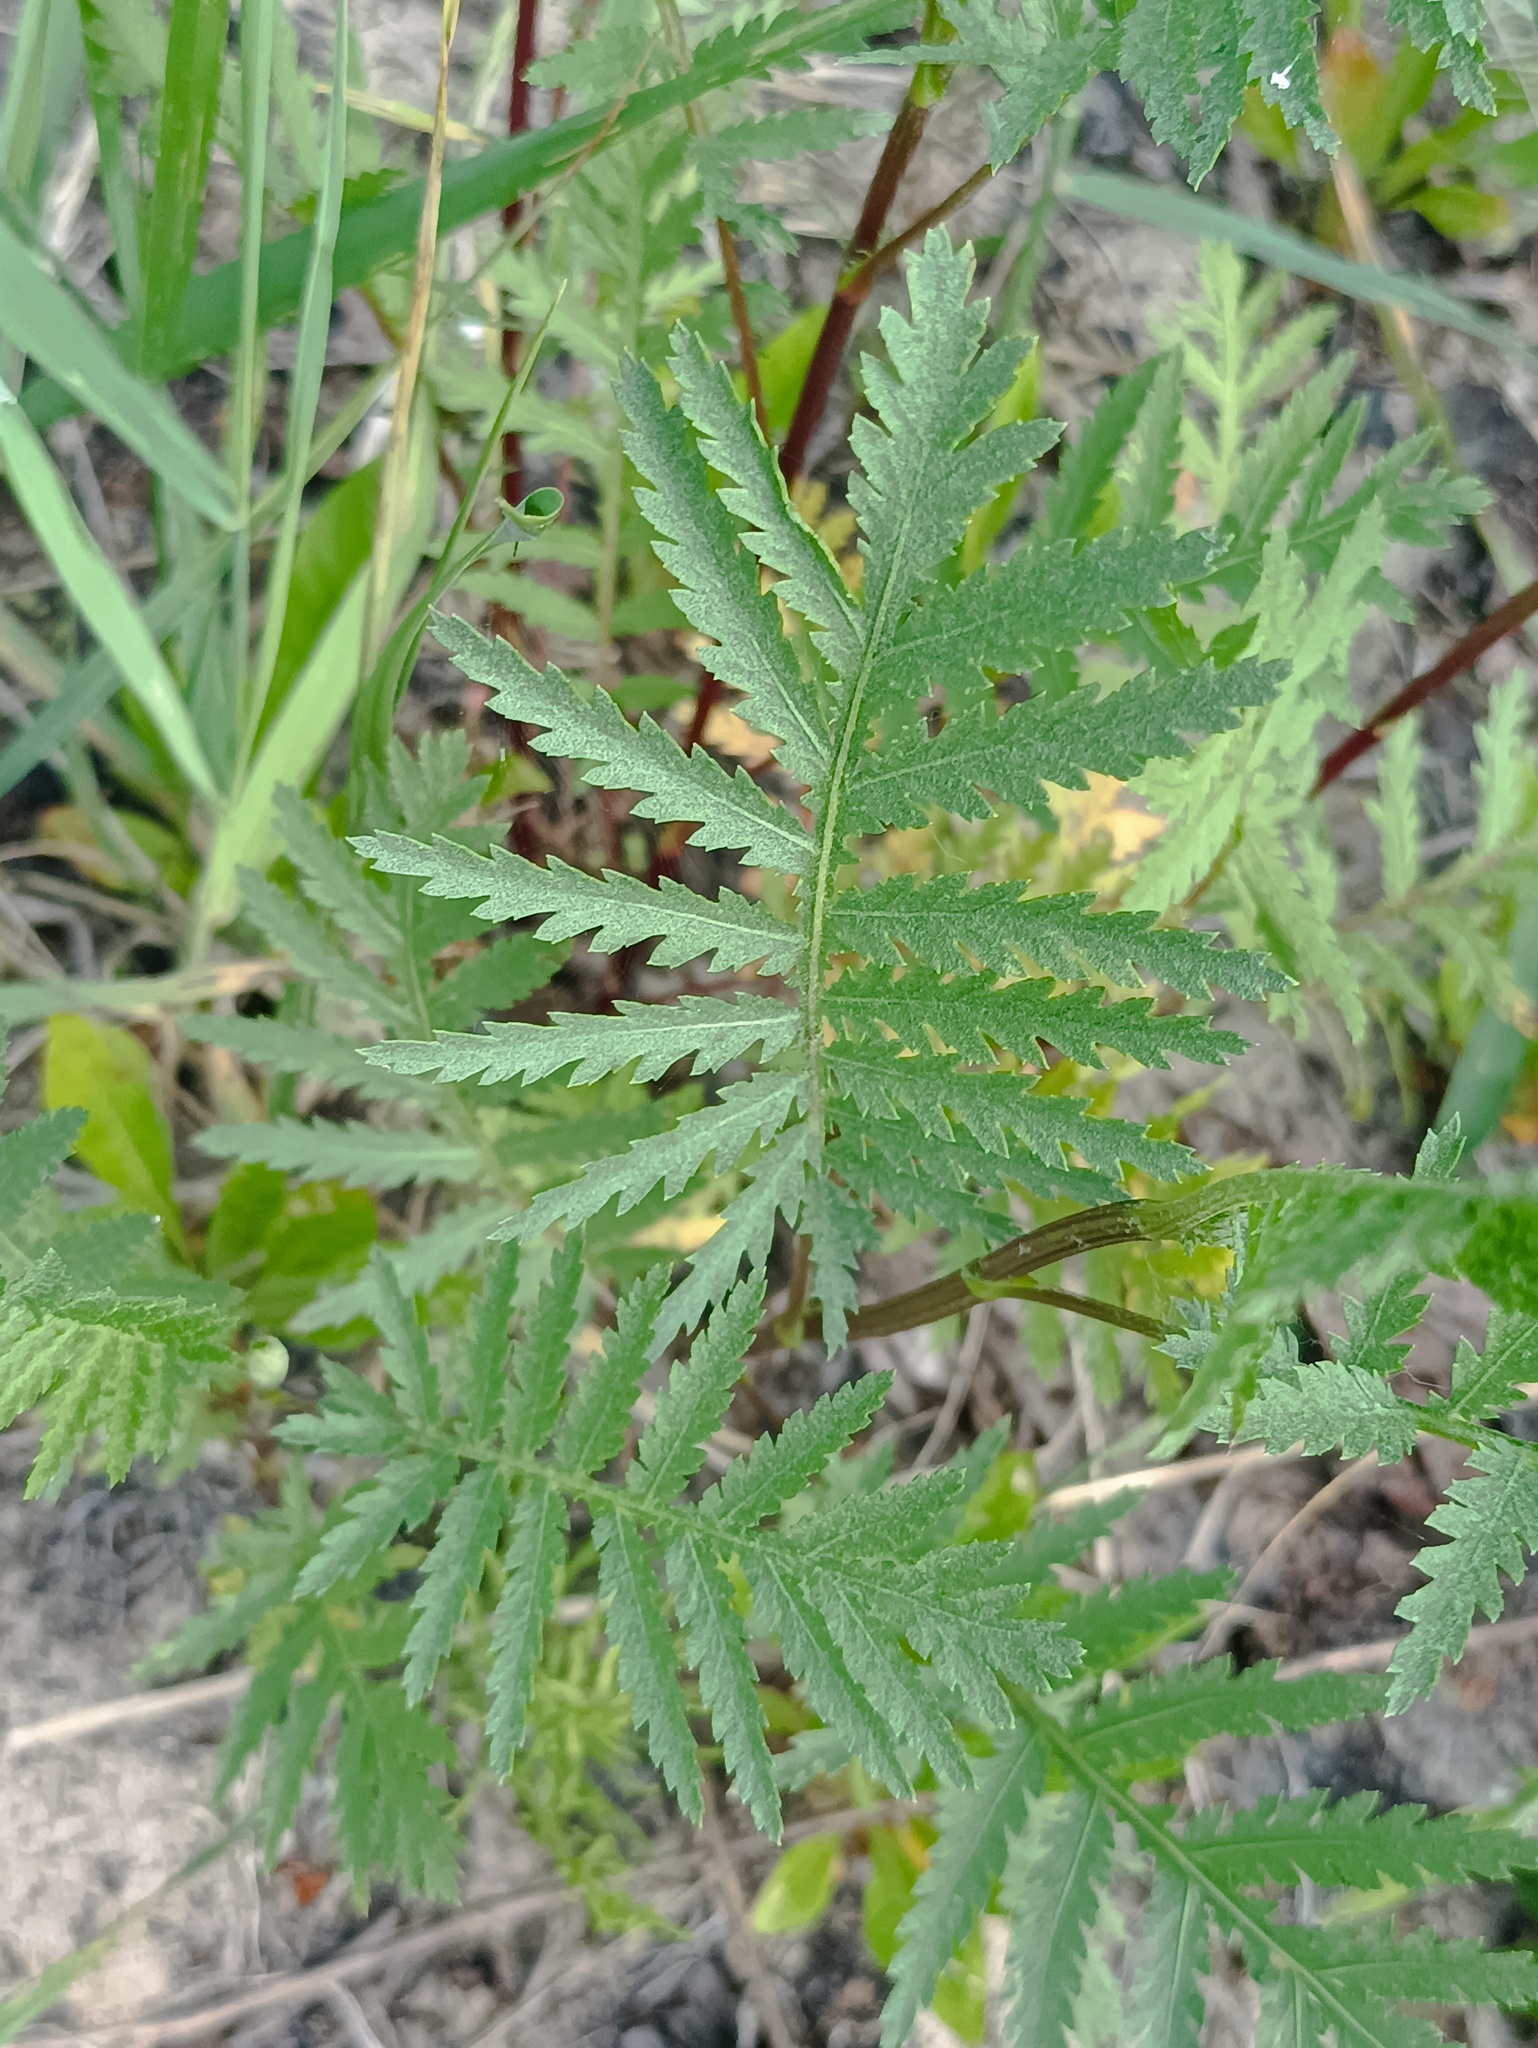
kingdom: Plantae
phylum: Tracheophyta
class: Magnoliopsida
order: Asterales
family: Asteraceae
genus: Tanacetum
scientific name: Tanacetum vulgare
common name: Common tansy
